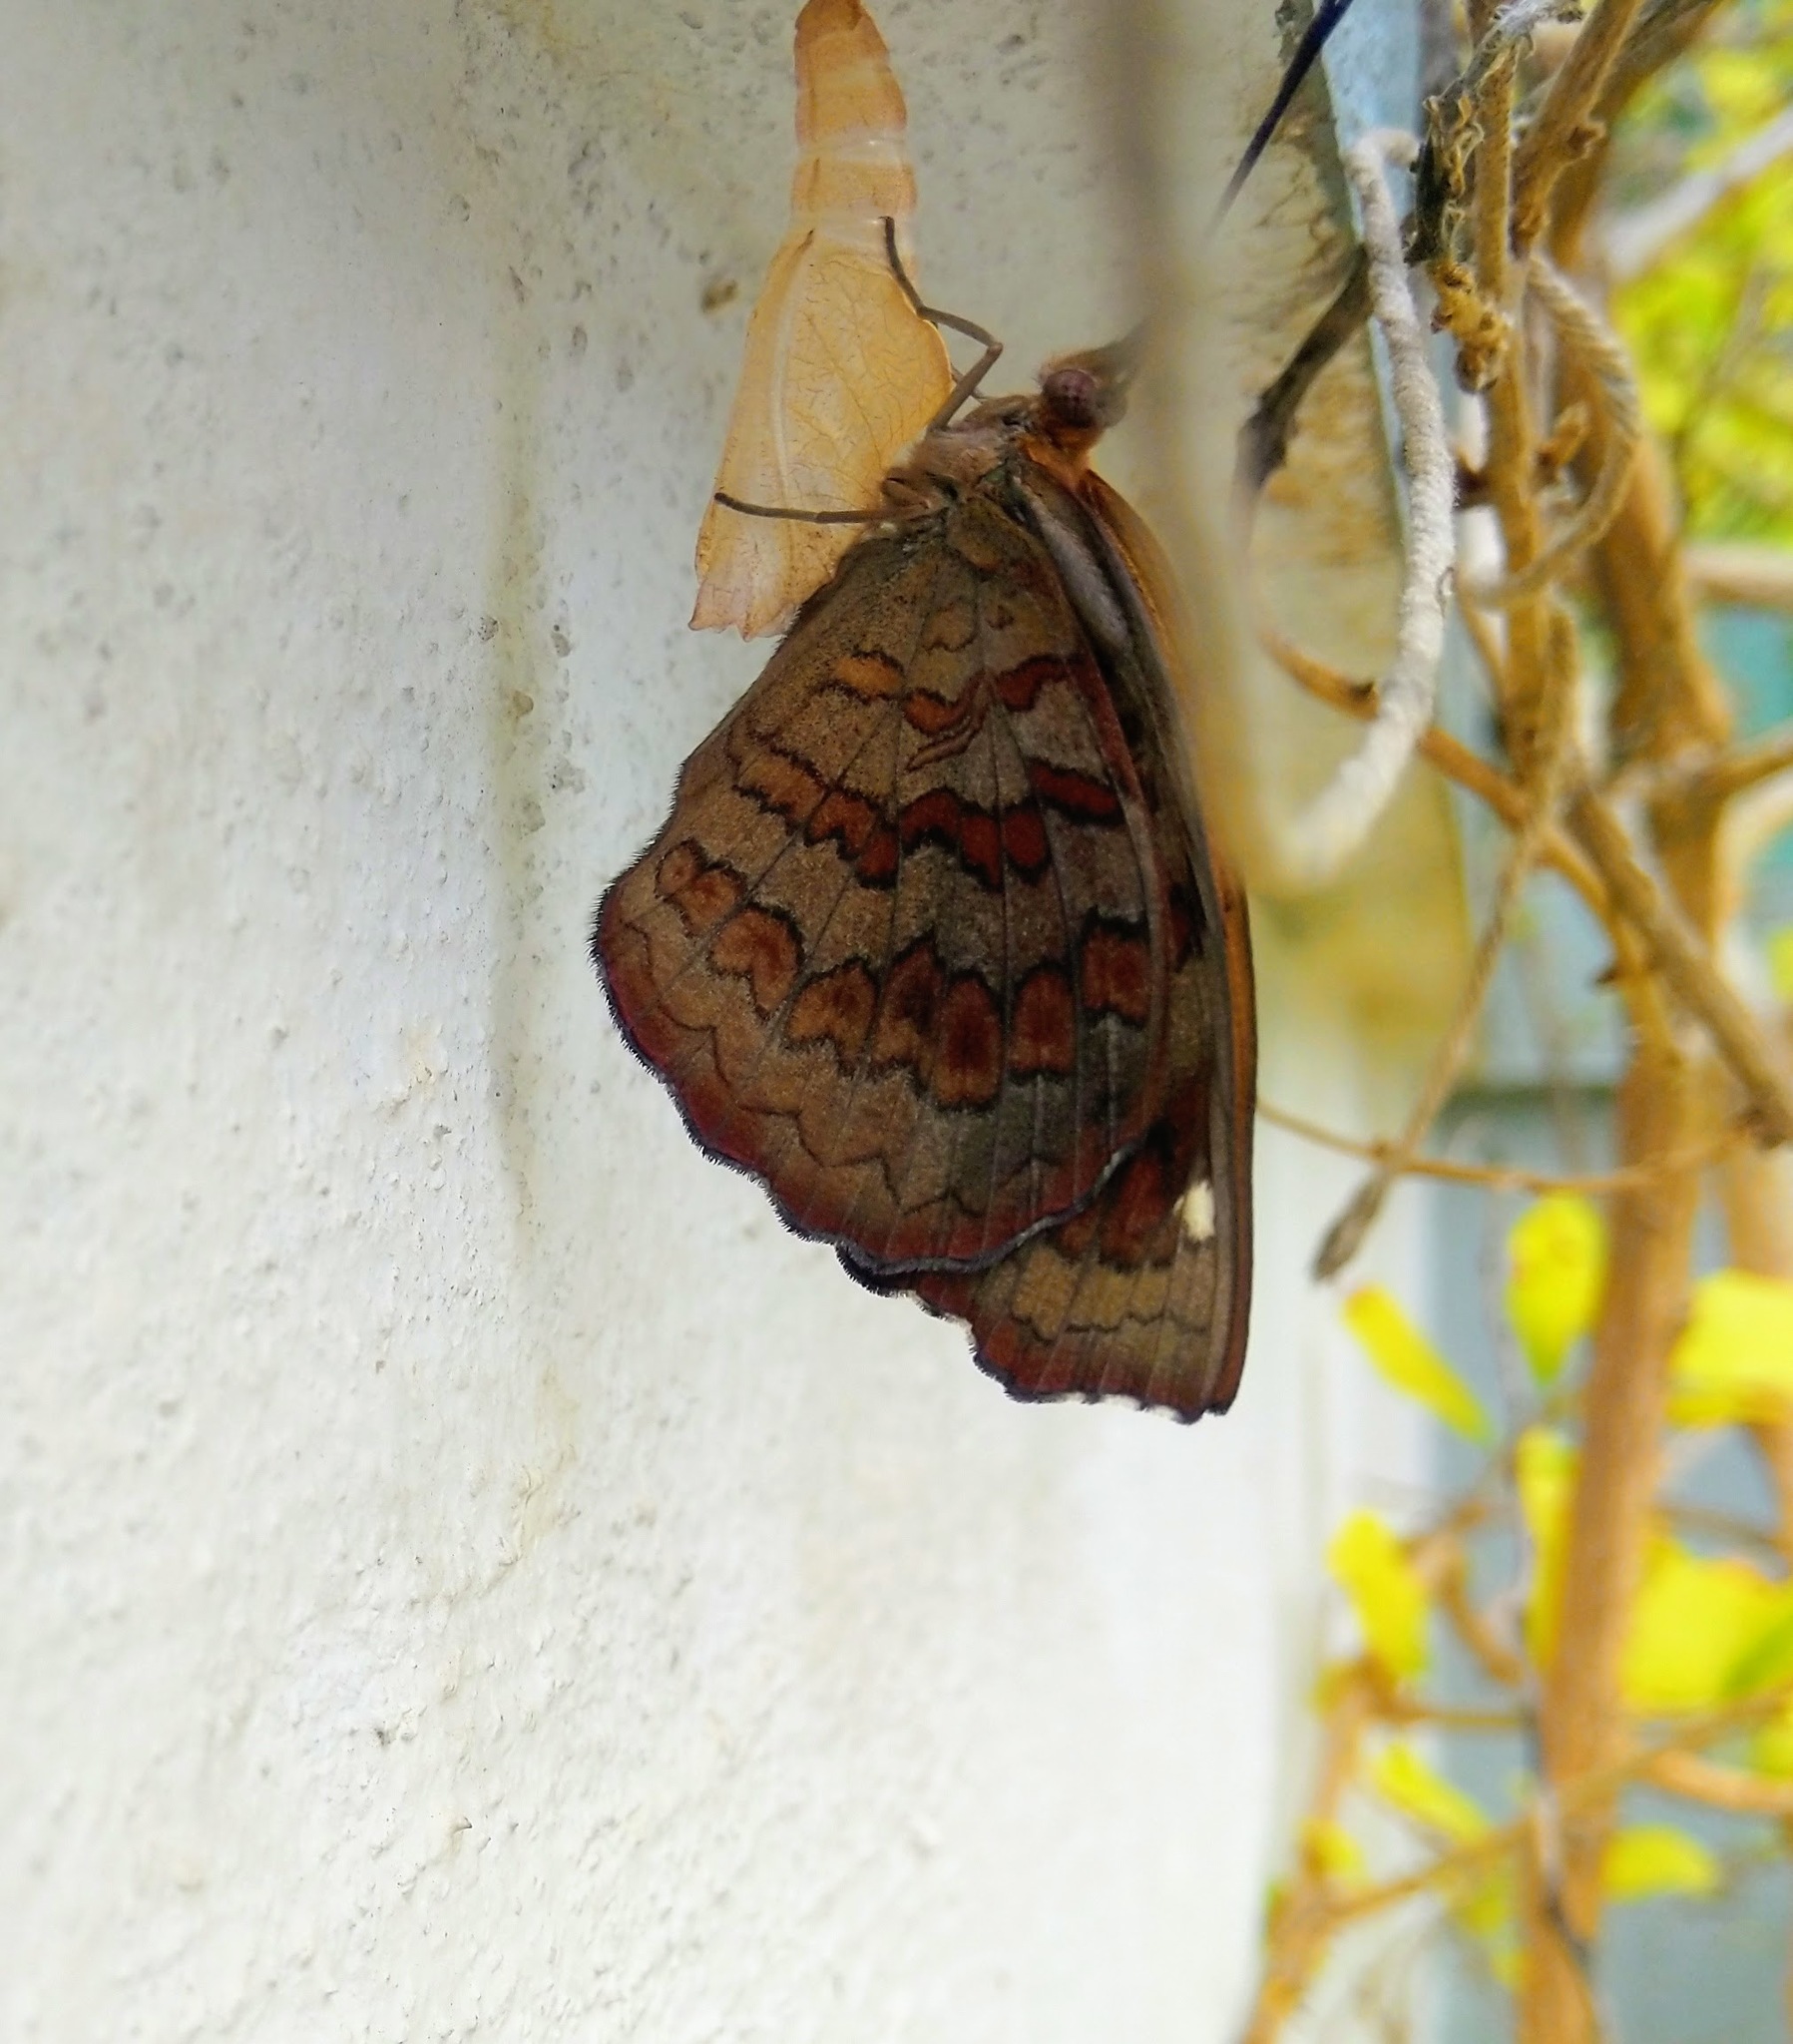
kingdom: Animalia
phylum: Arthropoda
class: Insecta
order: Lepidoptera
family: Nymphalidae
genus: Ariadne
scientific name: Ariadne merione
